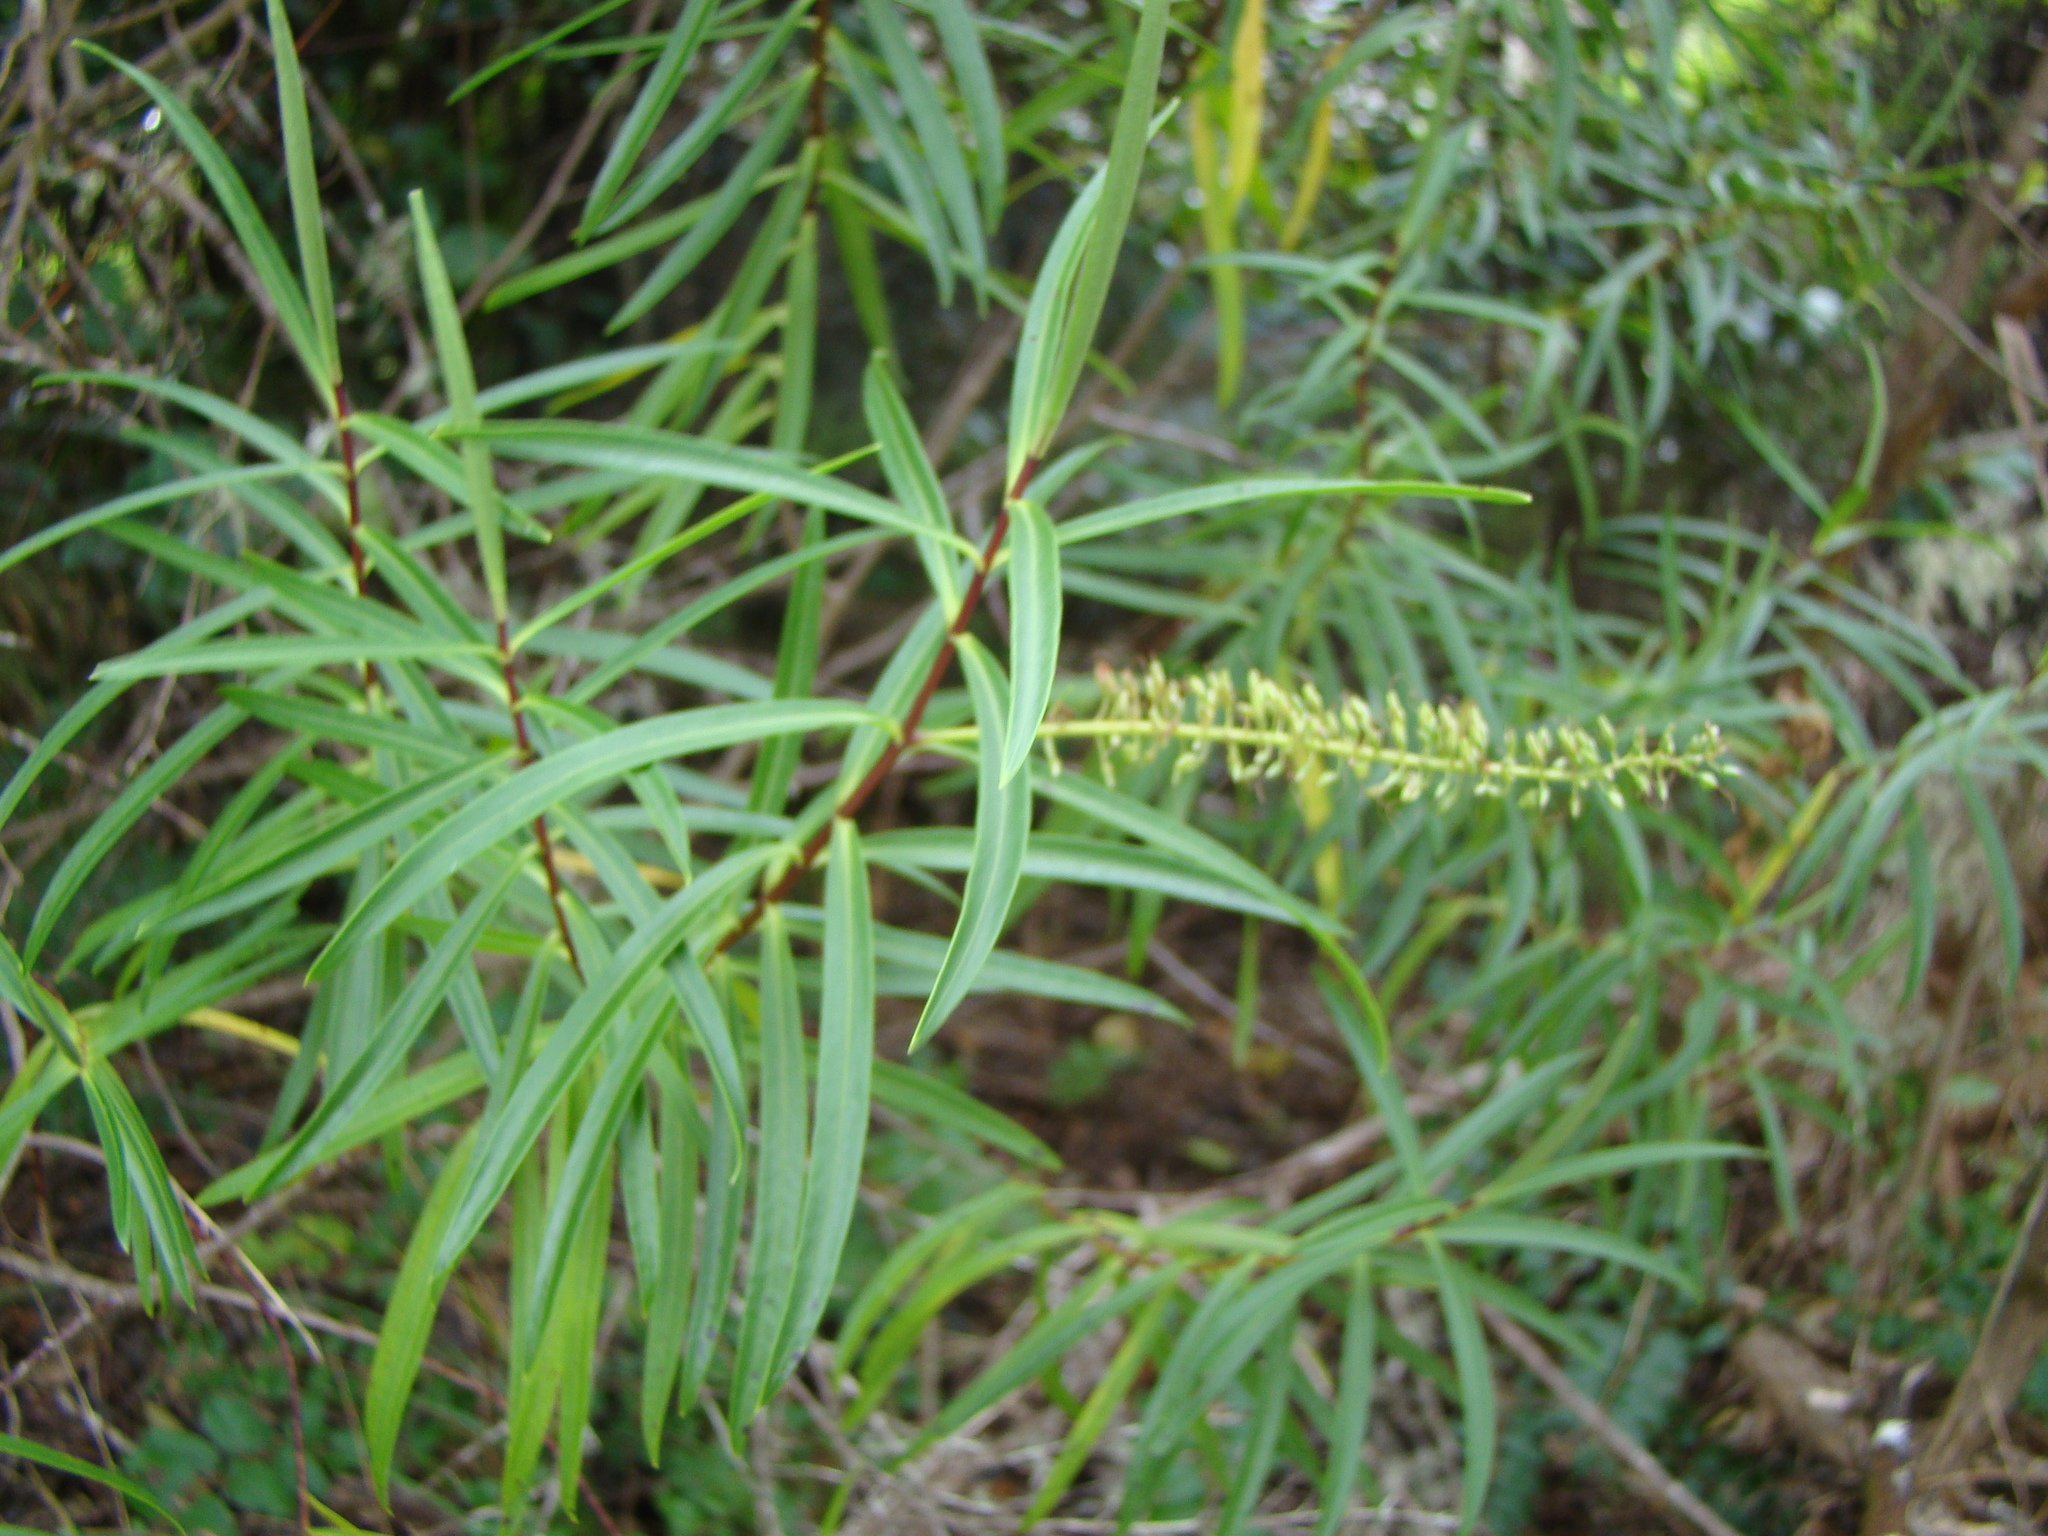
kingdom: Plantae
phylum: Tracheophyta
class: Magnoliopsida
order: Lamiales
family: Plantaginaceae
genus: Veronica
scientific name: Veronica stenophylla
